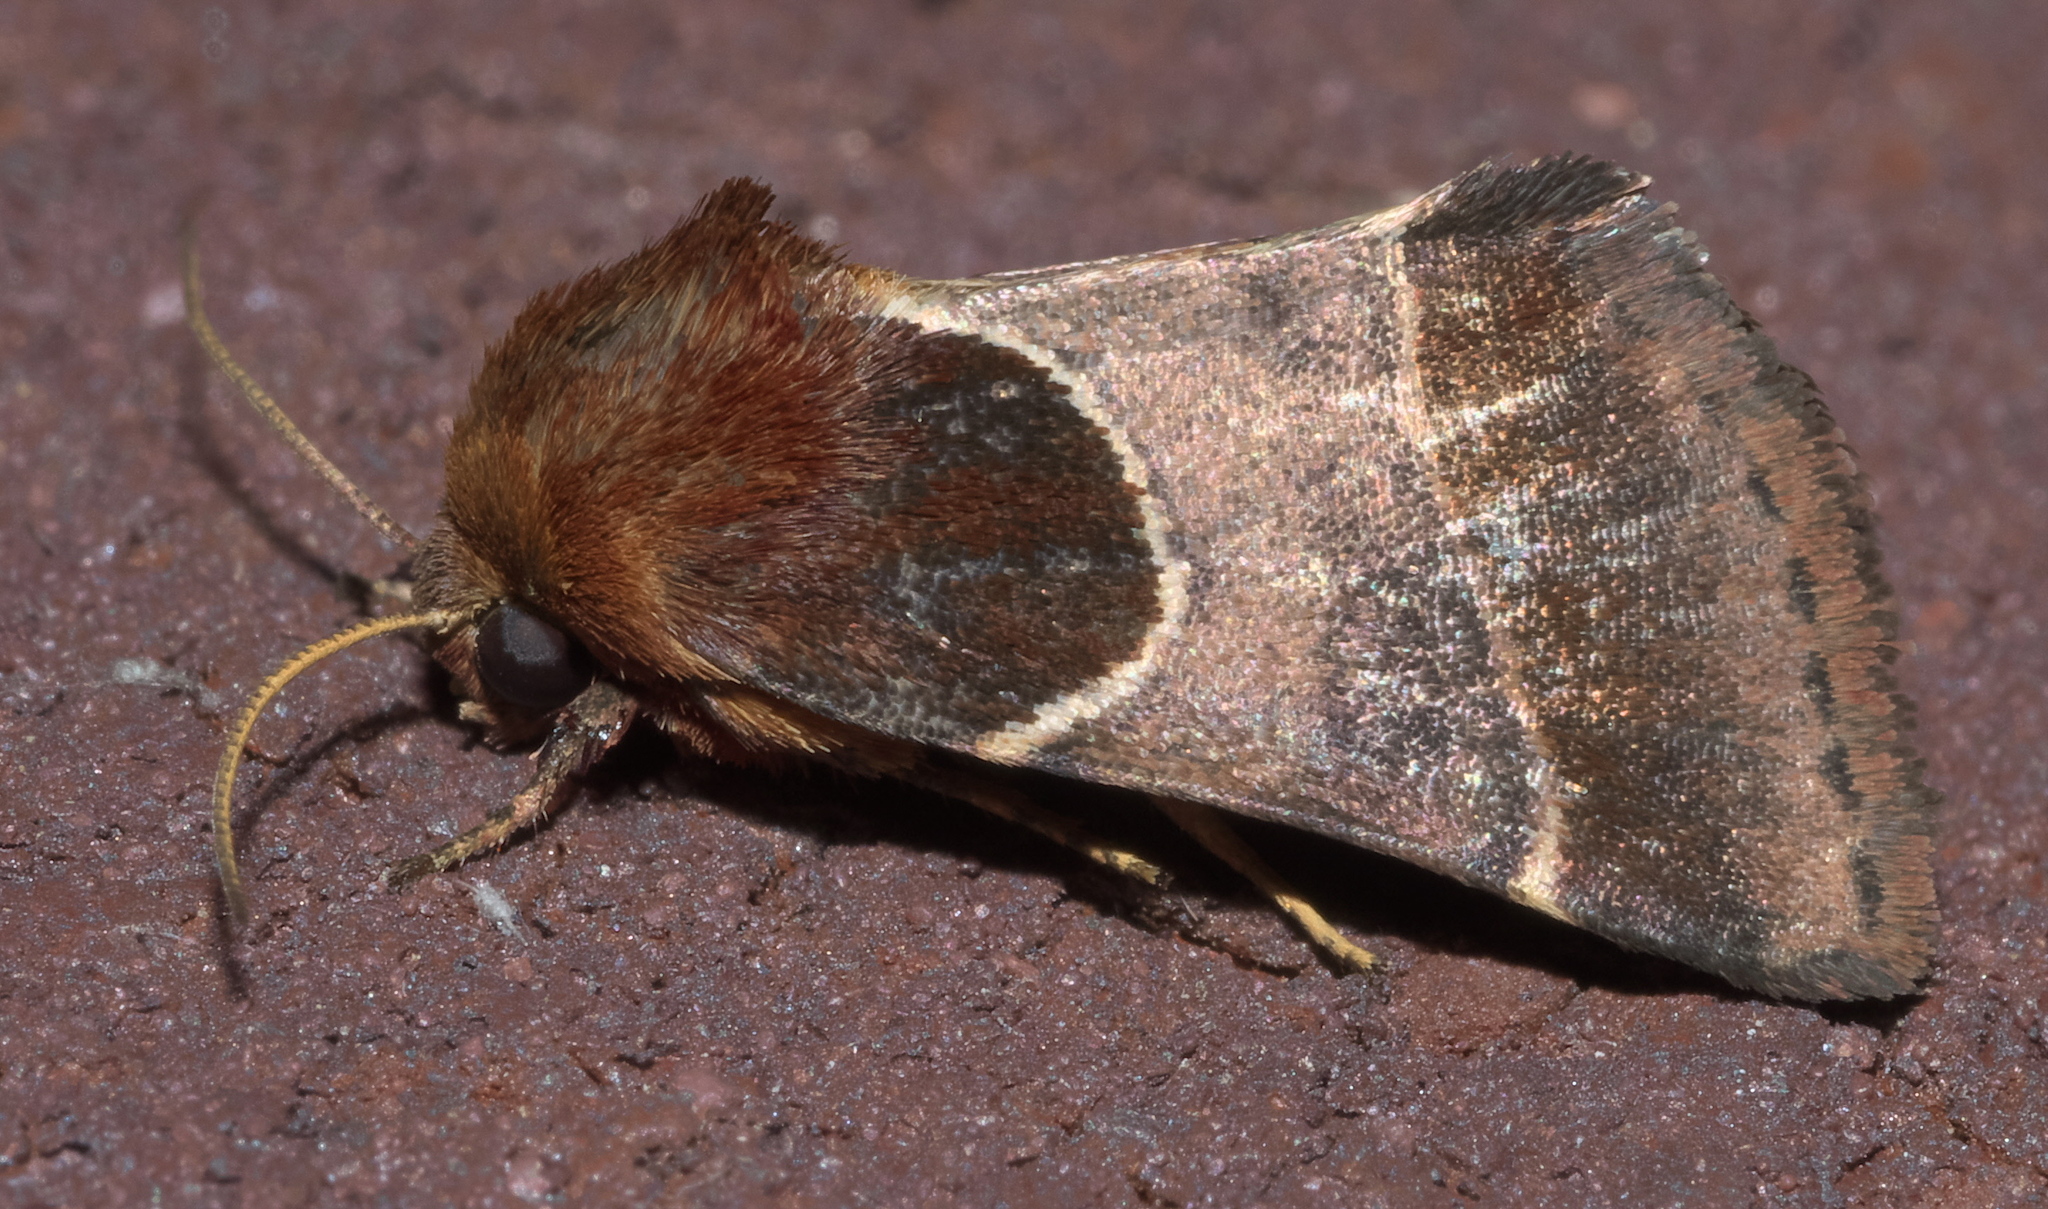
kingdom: Animalia
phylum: Arthropoda
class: Insecta
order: Lepidoptera
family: Noctuidae
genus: Schinia
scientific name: Schinia arcigera
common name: Arcigera flower moth
